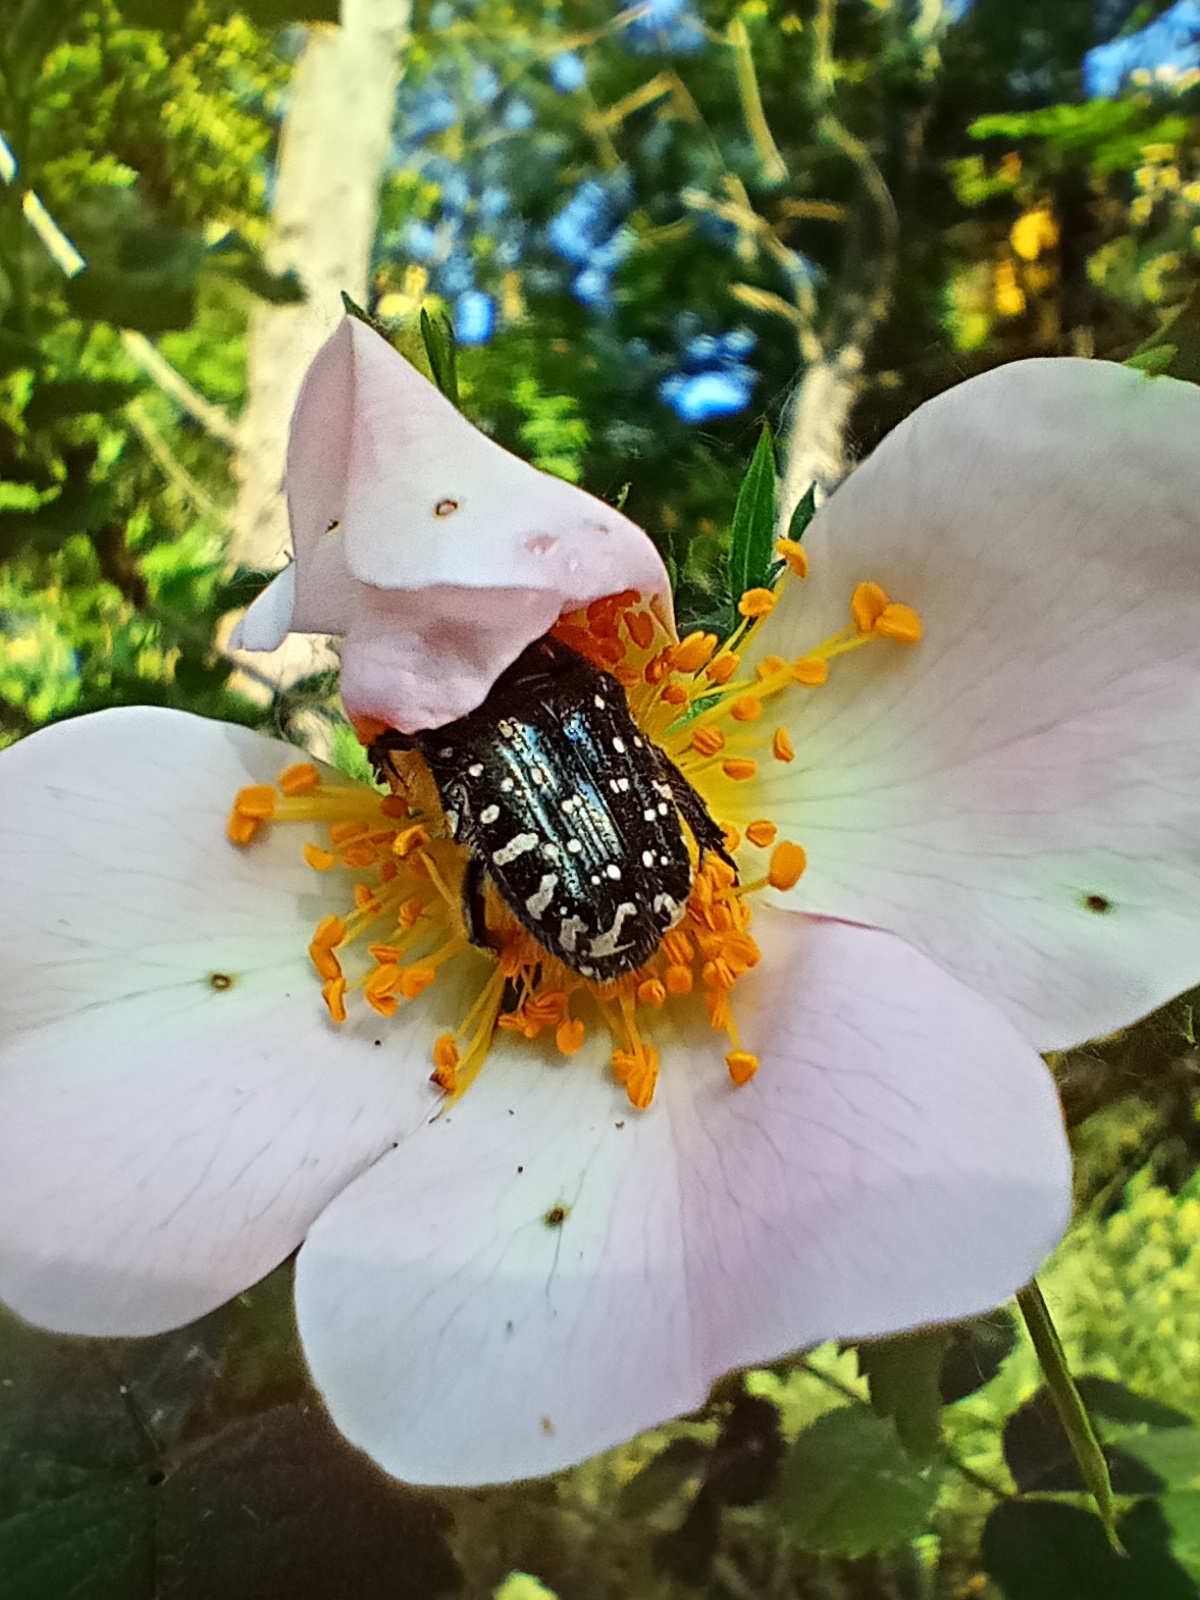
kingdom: Animalia
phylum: Arthropoda
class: Insecta
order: Coleoptera
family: Scarabaeidae
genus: Oxythyrea
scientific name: Oxythyrea funesta
